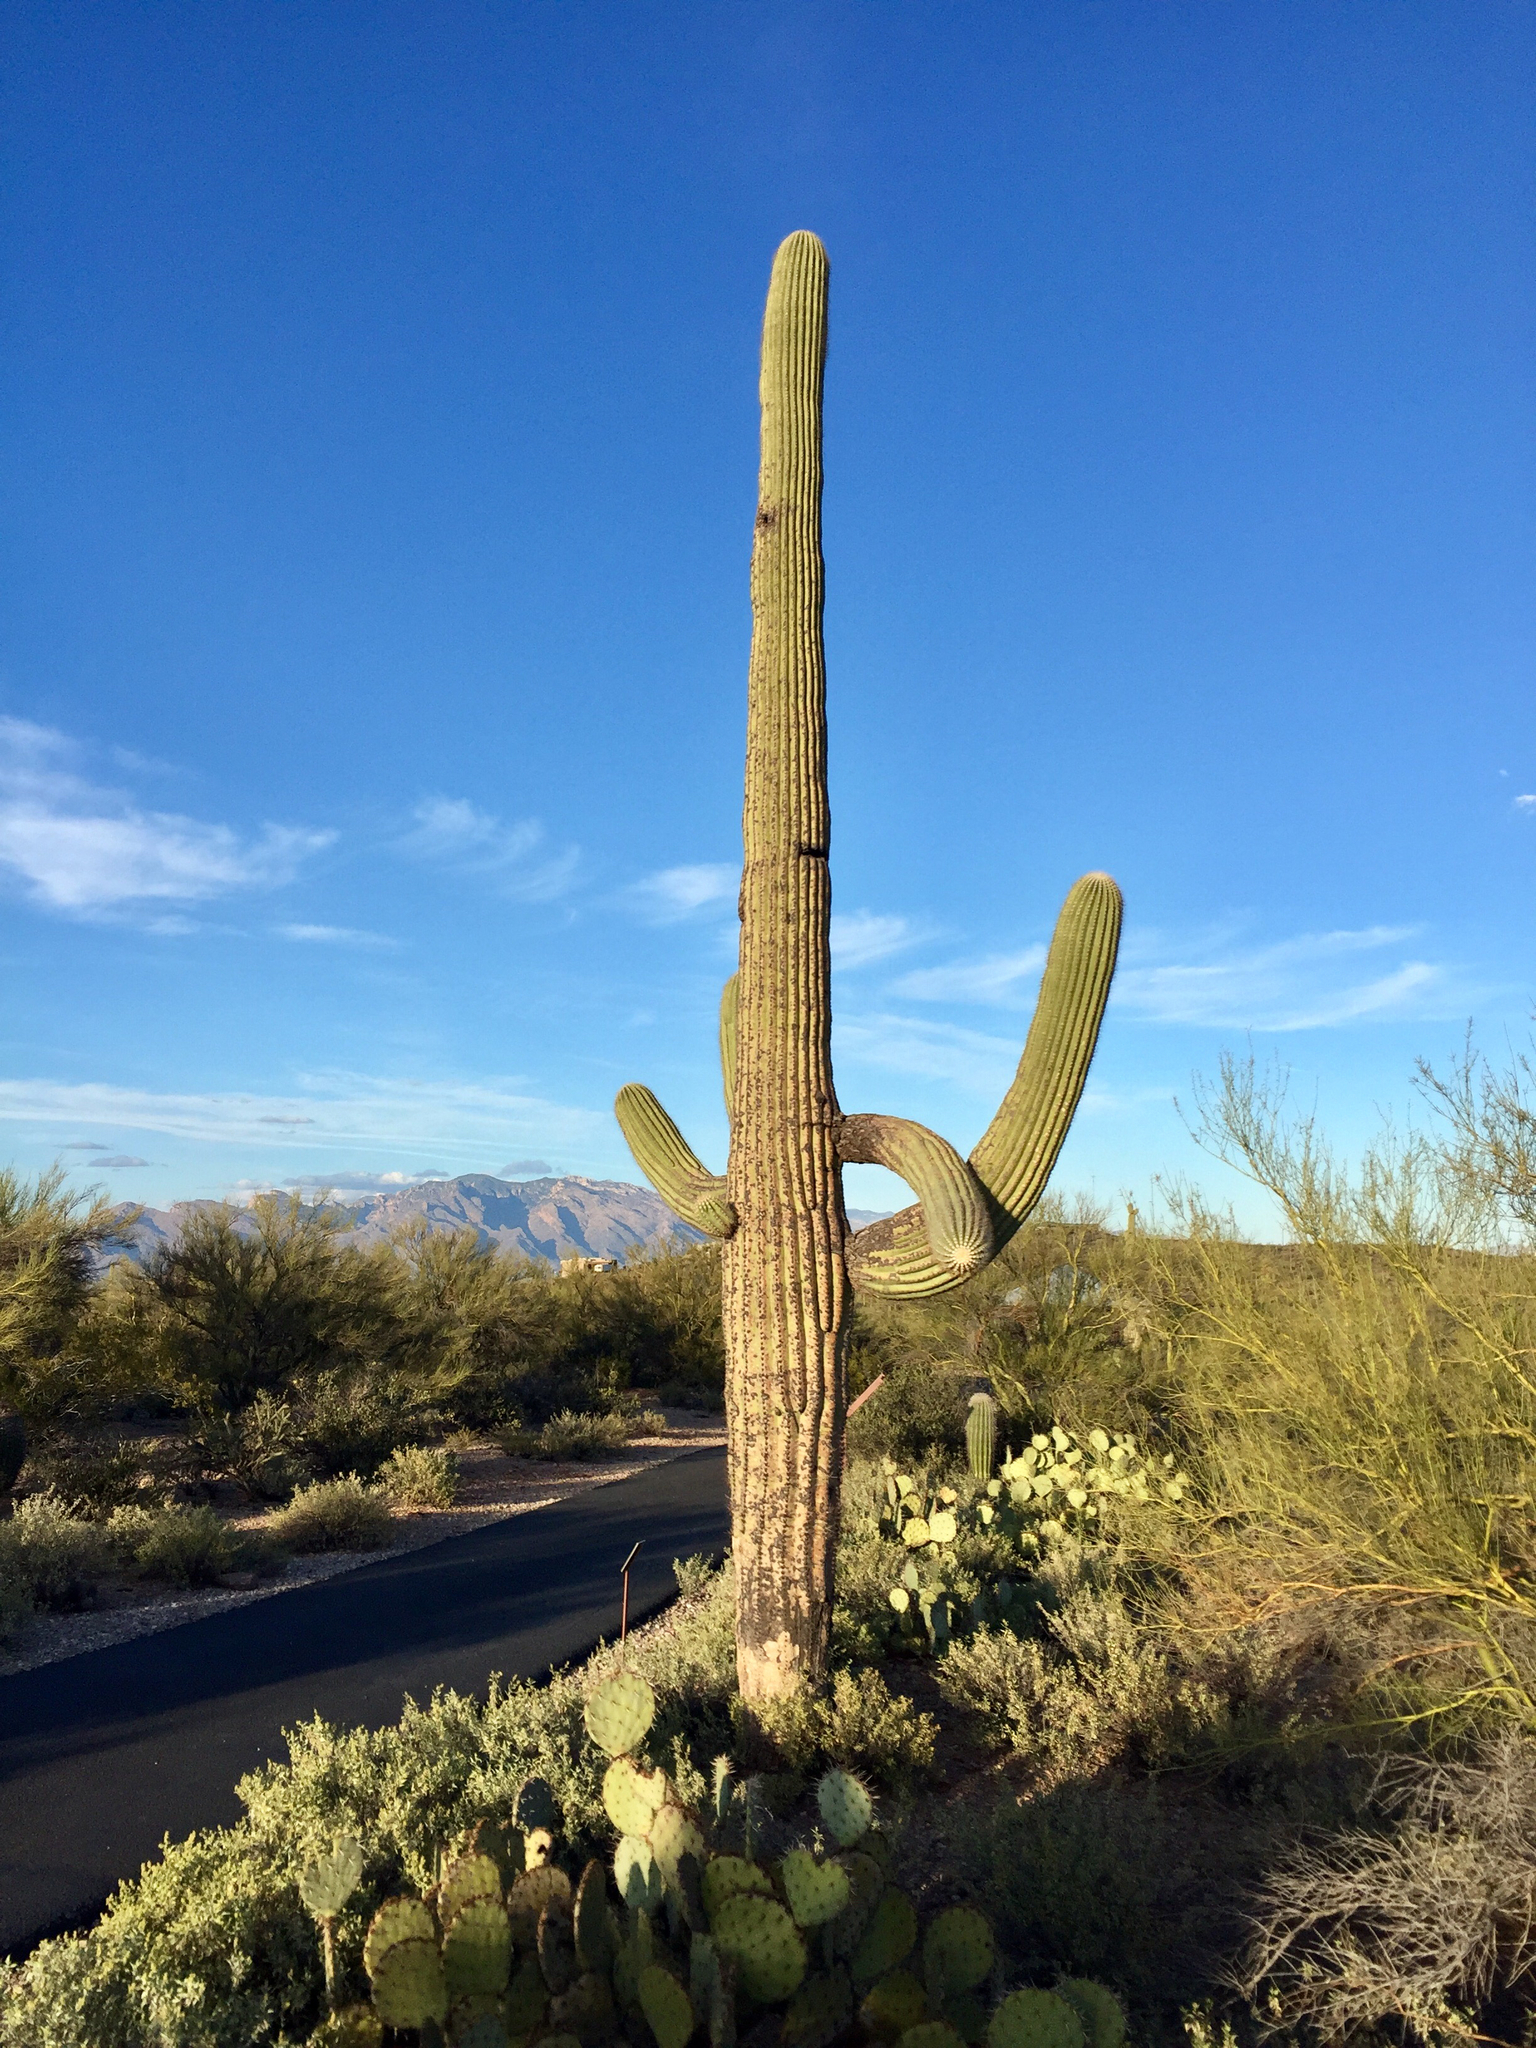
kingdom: Plantae
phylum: Tracheophyta
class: Magnoliopsida
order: Caryophyllales
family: Cactaceae
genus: Carnegiea
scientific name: Carnegiea gigantea
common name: Saguaro
